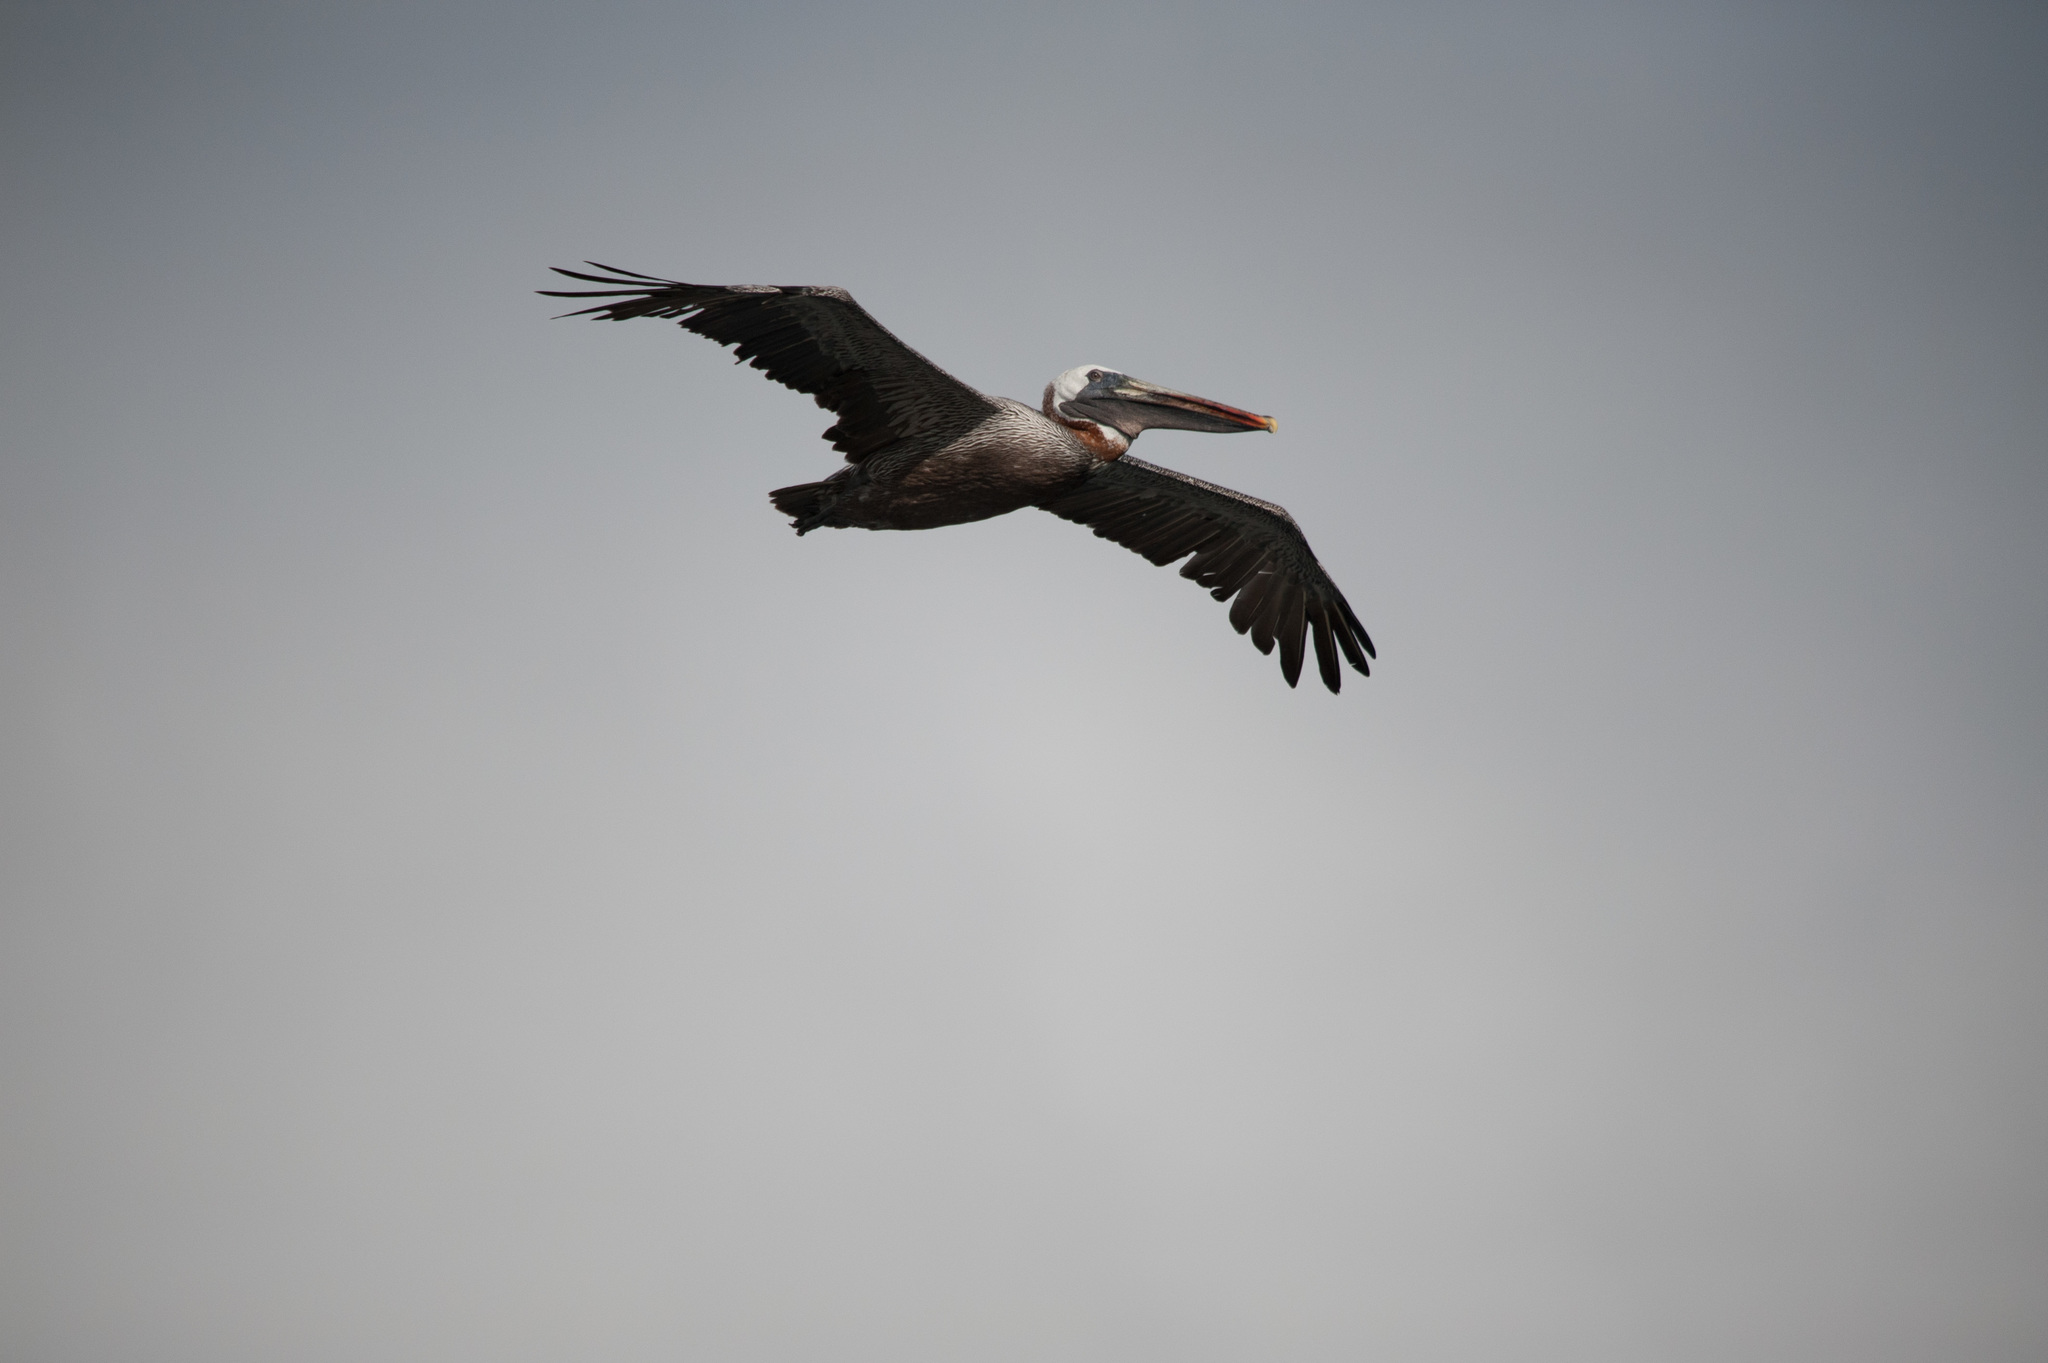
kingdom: Animalia
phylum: Chordata
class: Aves
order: Pelecaniformes
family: Pelecanidae
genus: Pelecanus
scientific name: Pelecanus occidentalis
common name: Brown pelican
